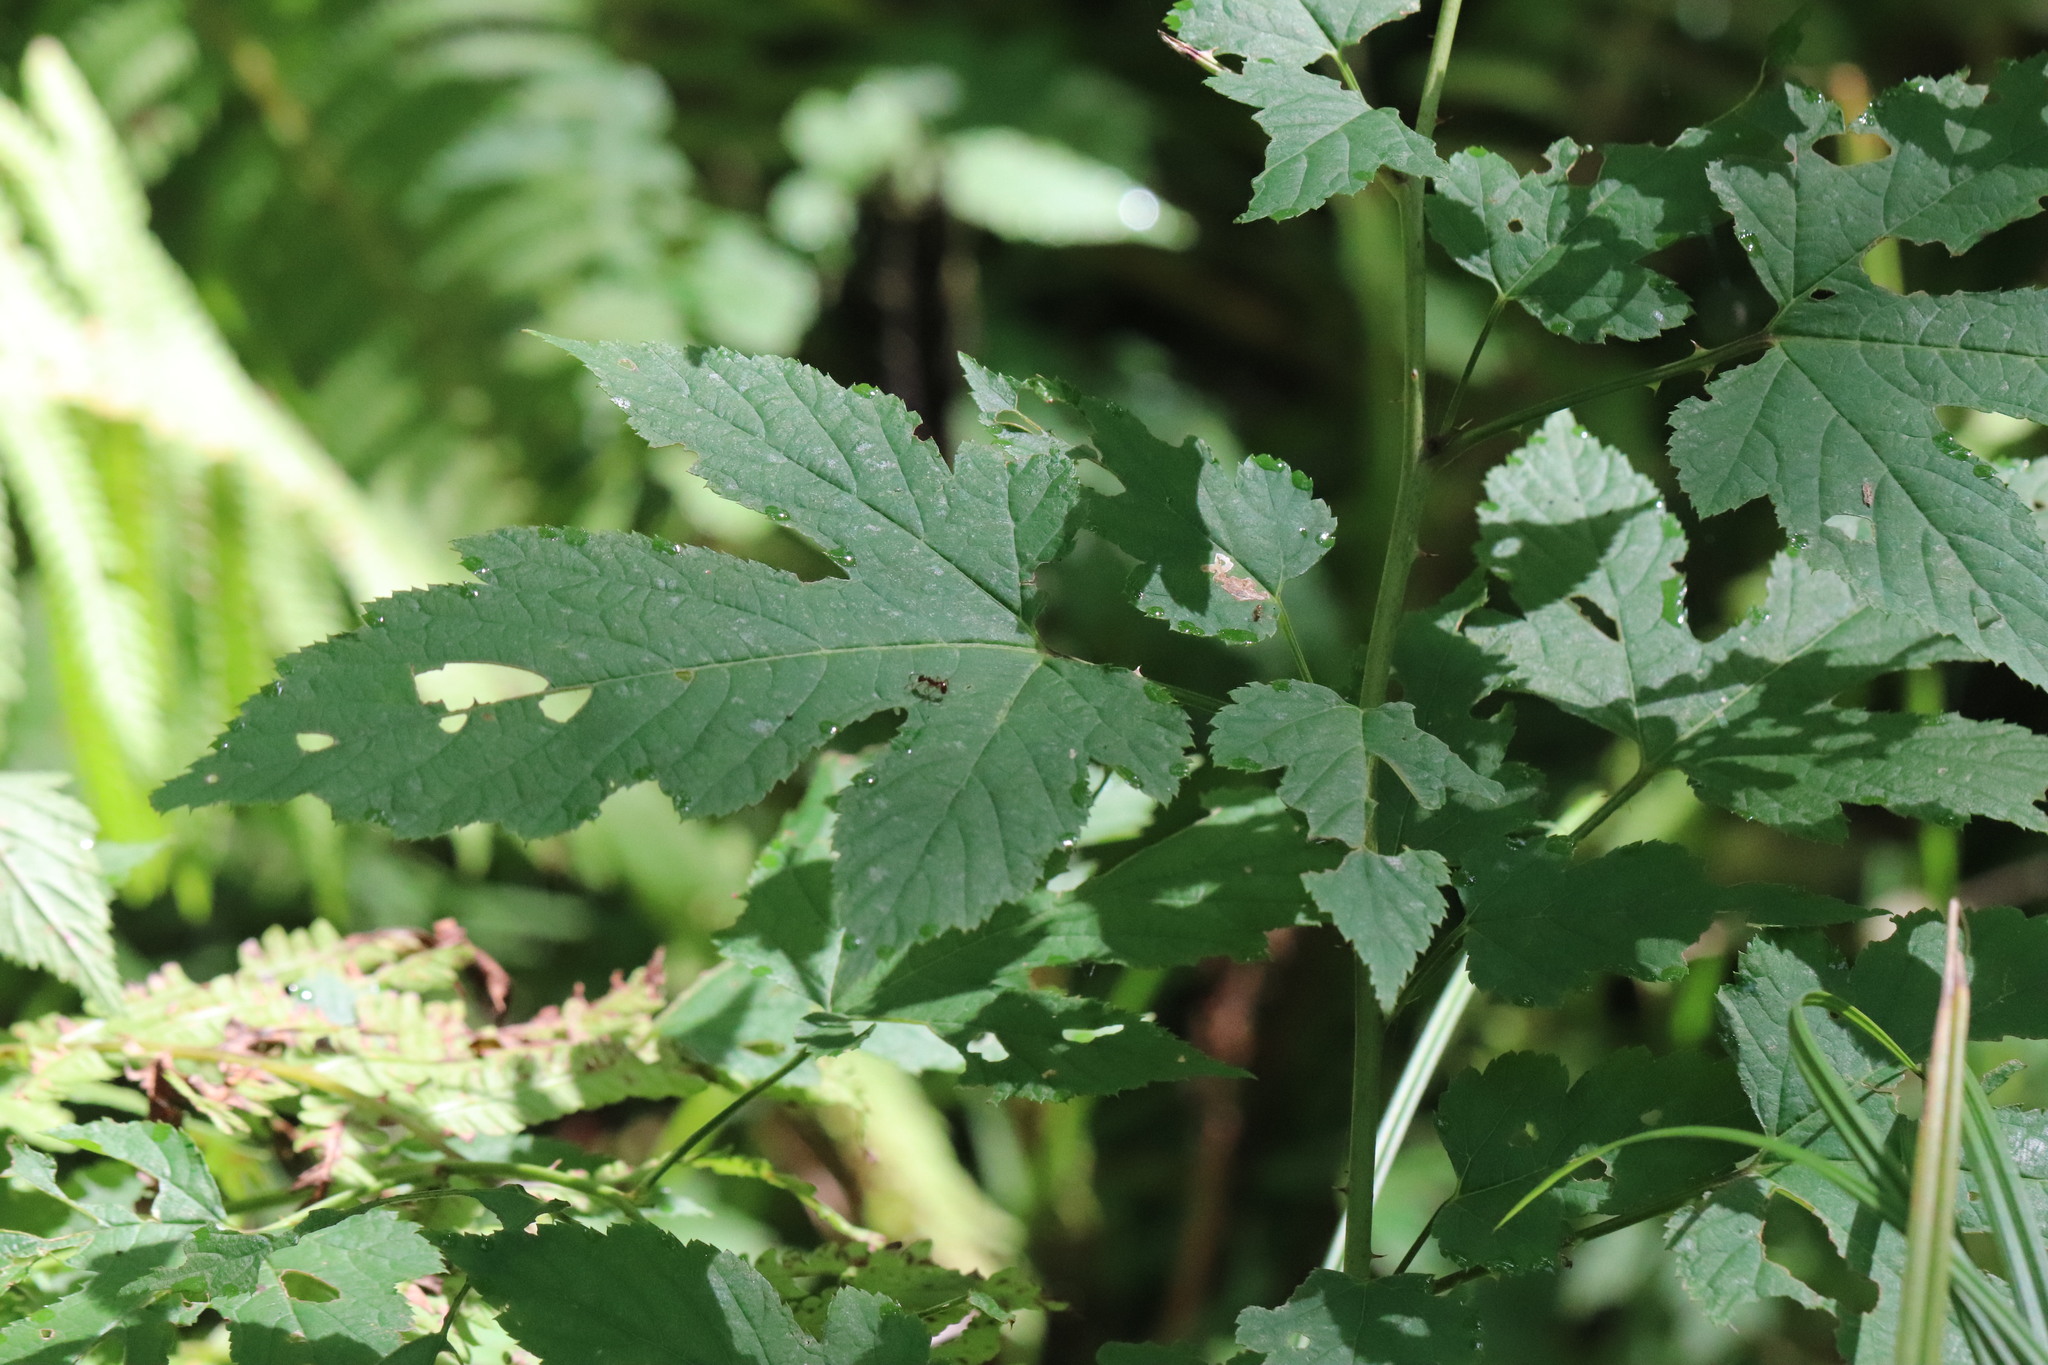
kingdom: Plantae
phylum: Tracheophyta
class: Magnoliopsida
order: Rosales
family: Rosaceae
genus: Rubus
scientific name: Rubus crataegifolius
